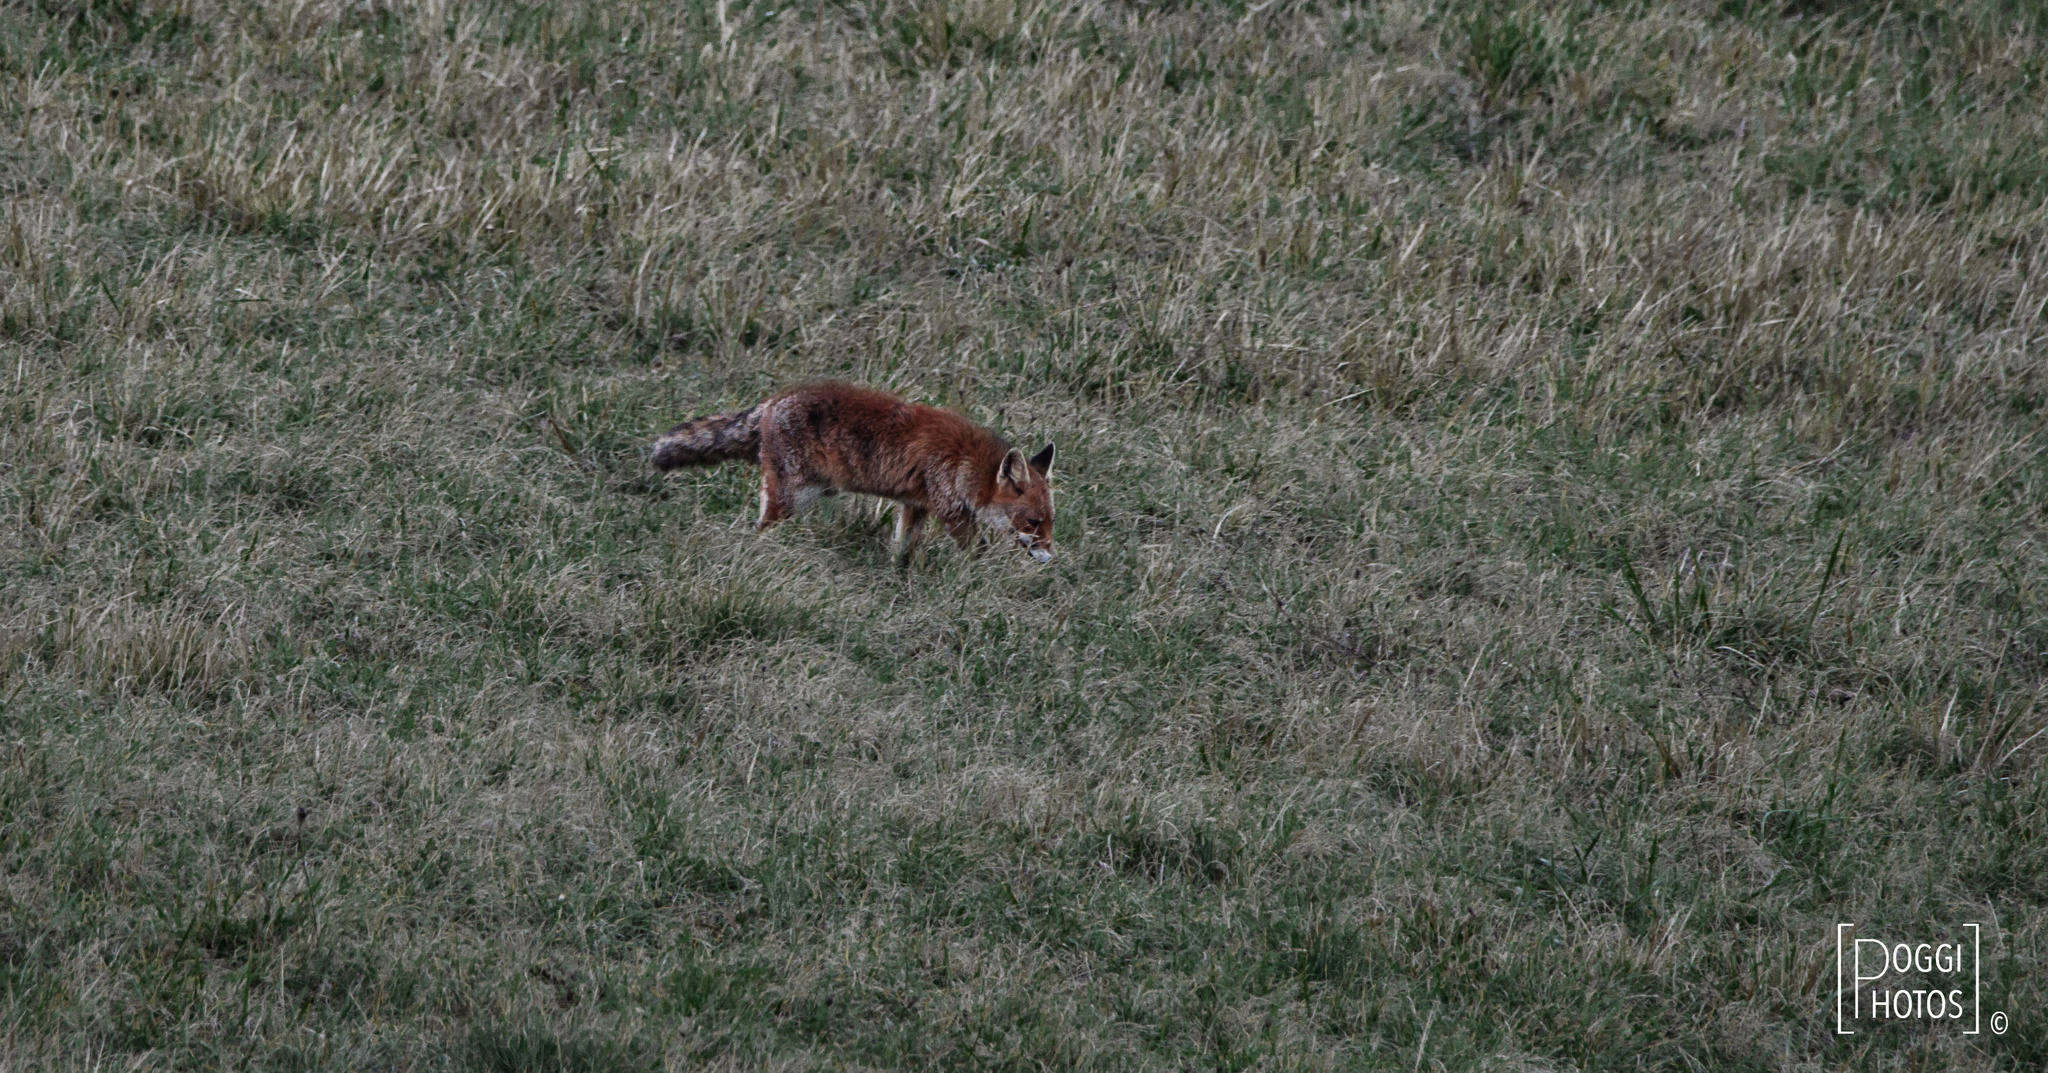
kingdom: Animalia
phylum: Chordata
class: Mammalia
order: Carnivora
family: Canidae
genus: Vulpes
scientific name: Vulpes vulpes
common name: Red fox
